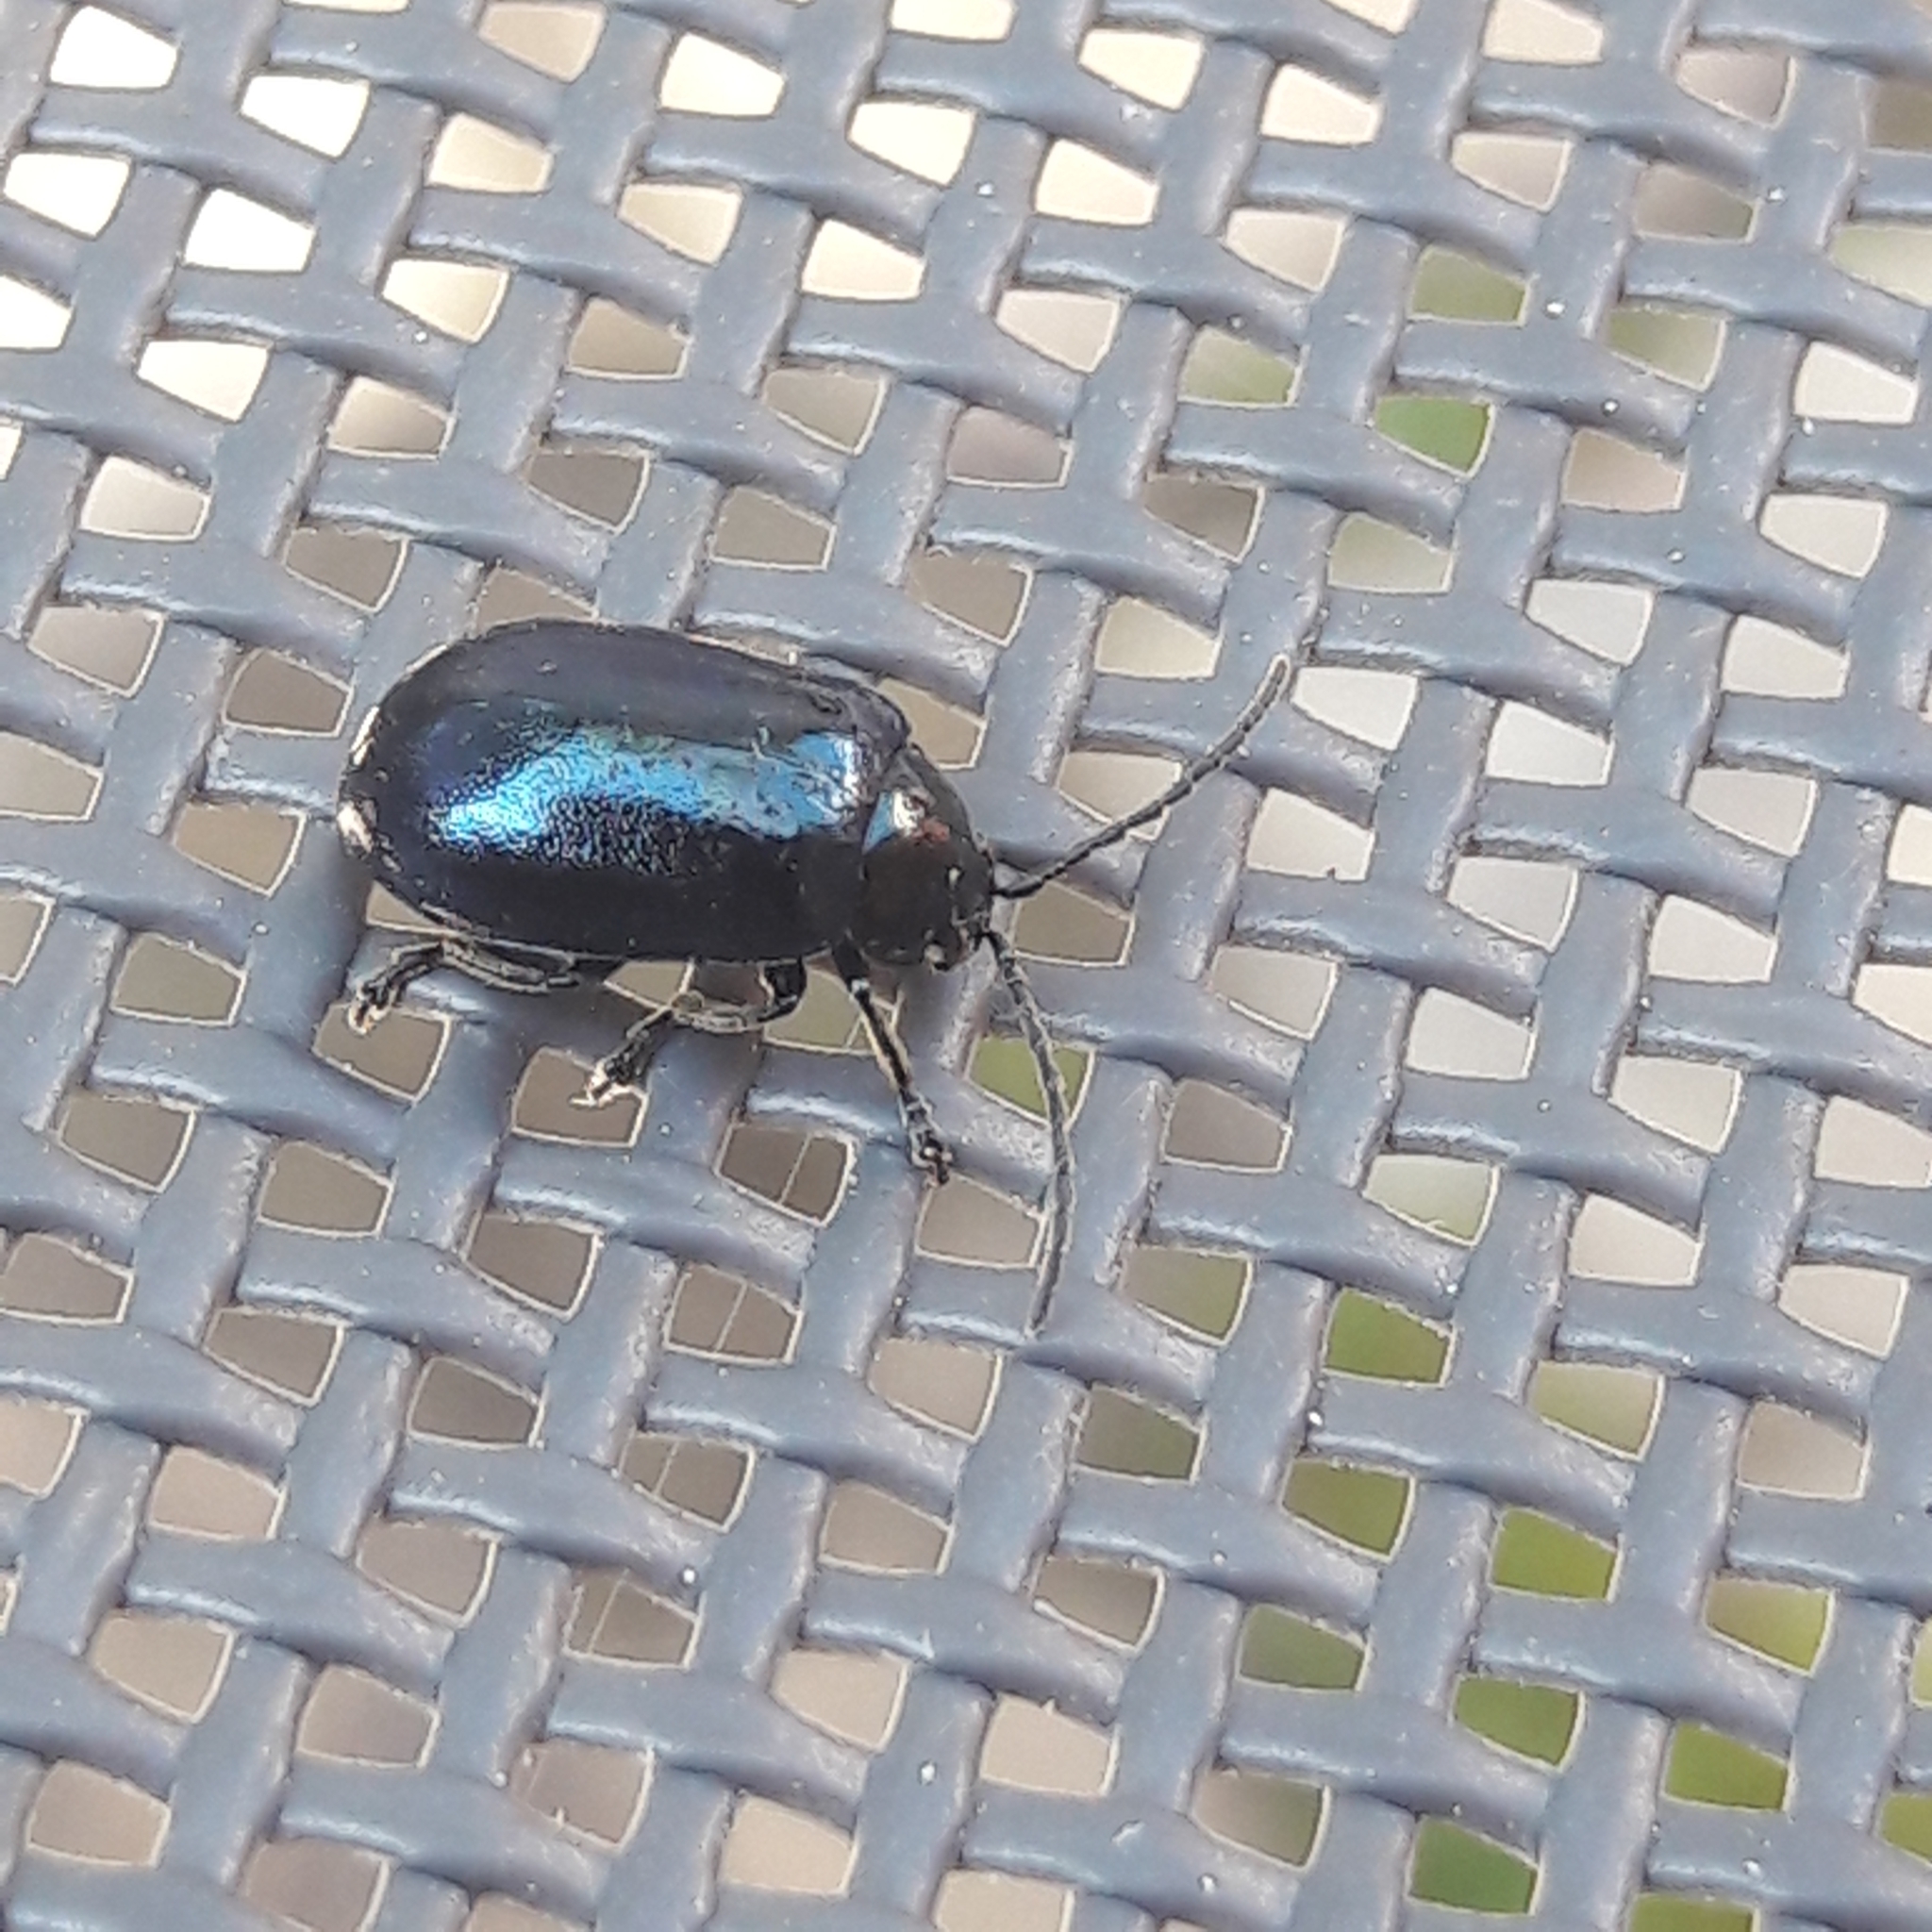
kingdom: Animalia
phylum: Arthropoda
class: Insecta
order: Coleoptera
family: Chrysomelidae
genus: Agelastica
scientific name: Agelastica alni
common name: Alder leaf beetle
